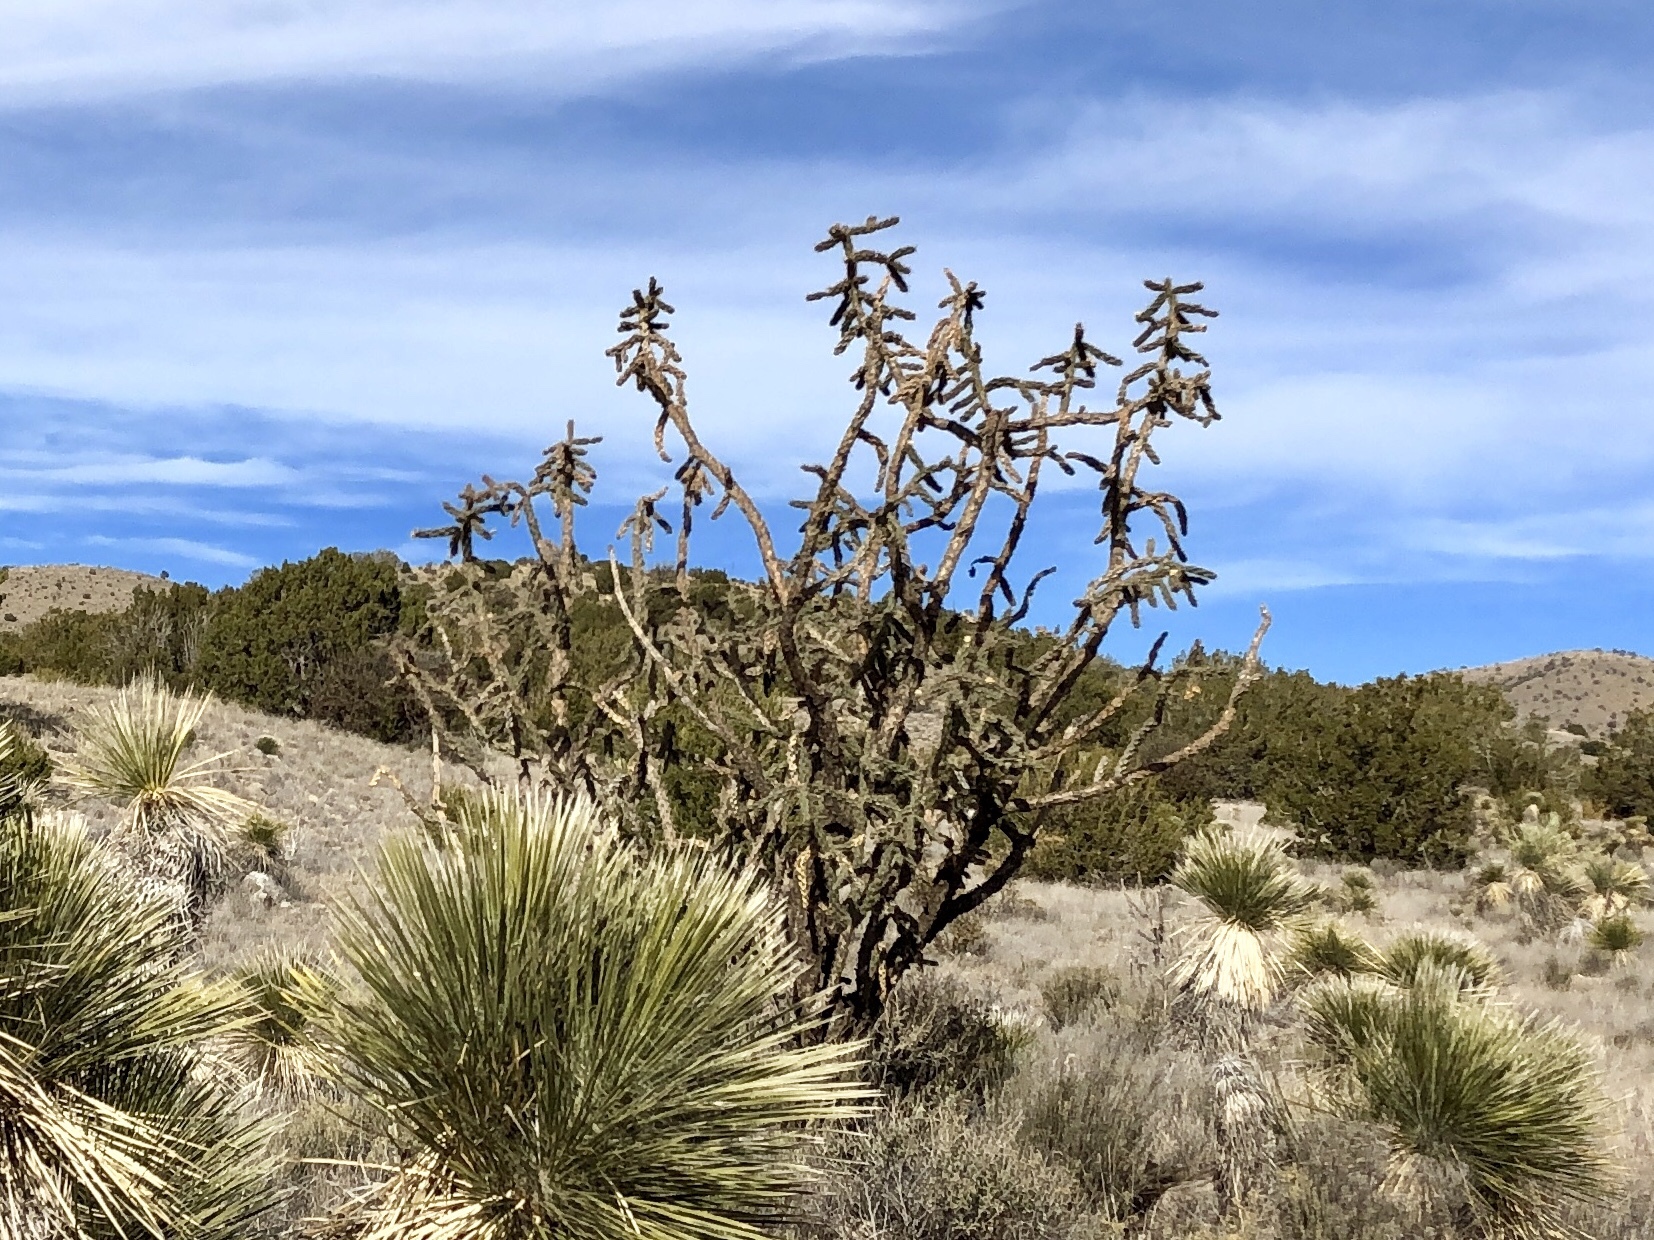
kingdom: Plantae
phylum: Tracheophyta
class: Magnoliopsida
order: Caryophyllales
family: Cactaceae
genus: Cylindropuntia
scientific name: Cylindropuntia imbricata
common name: Candelabrum cactus
